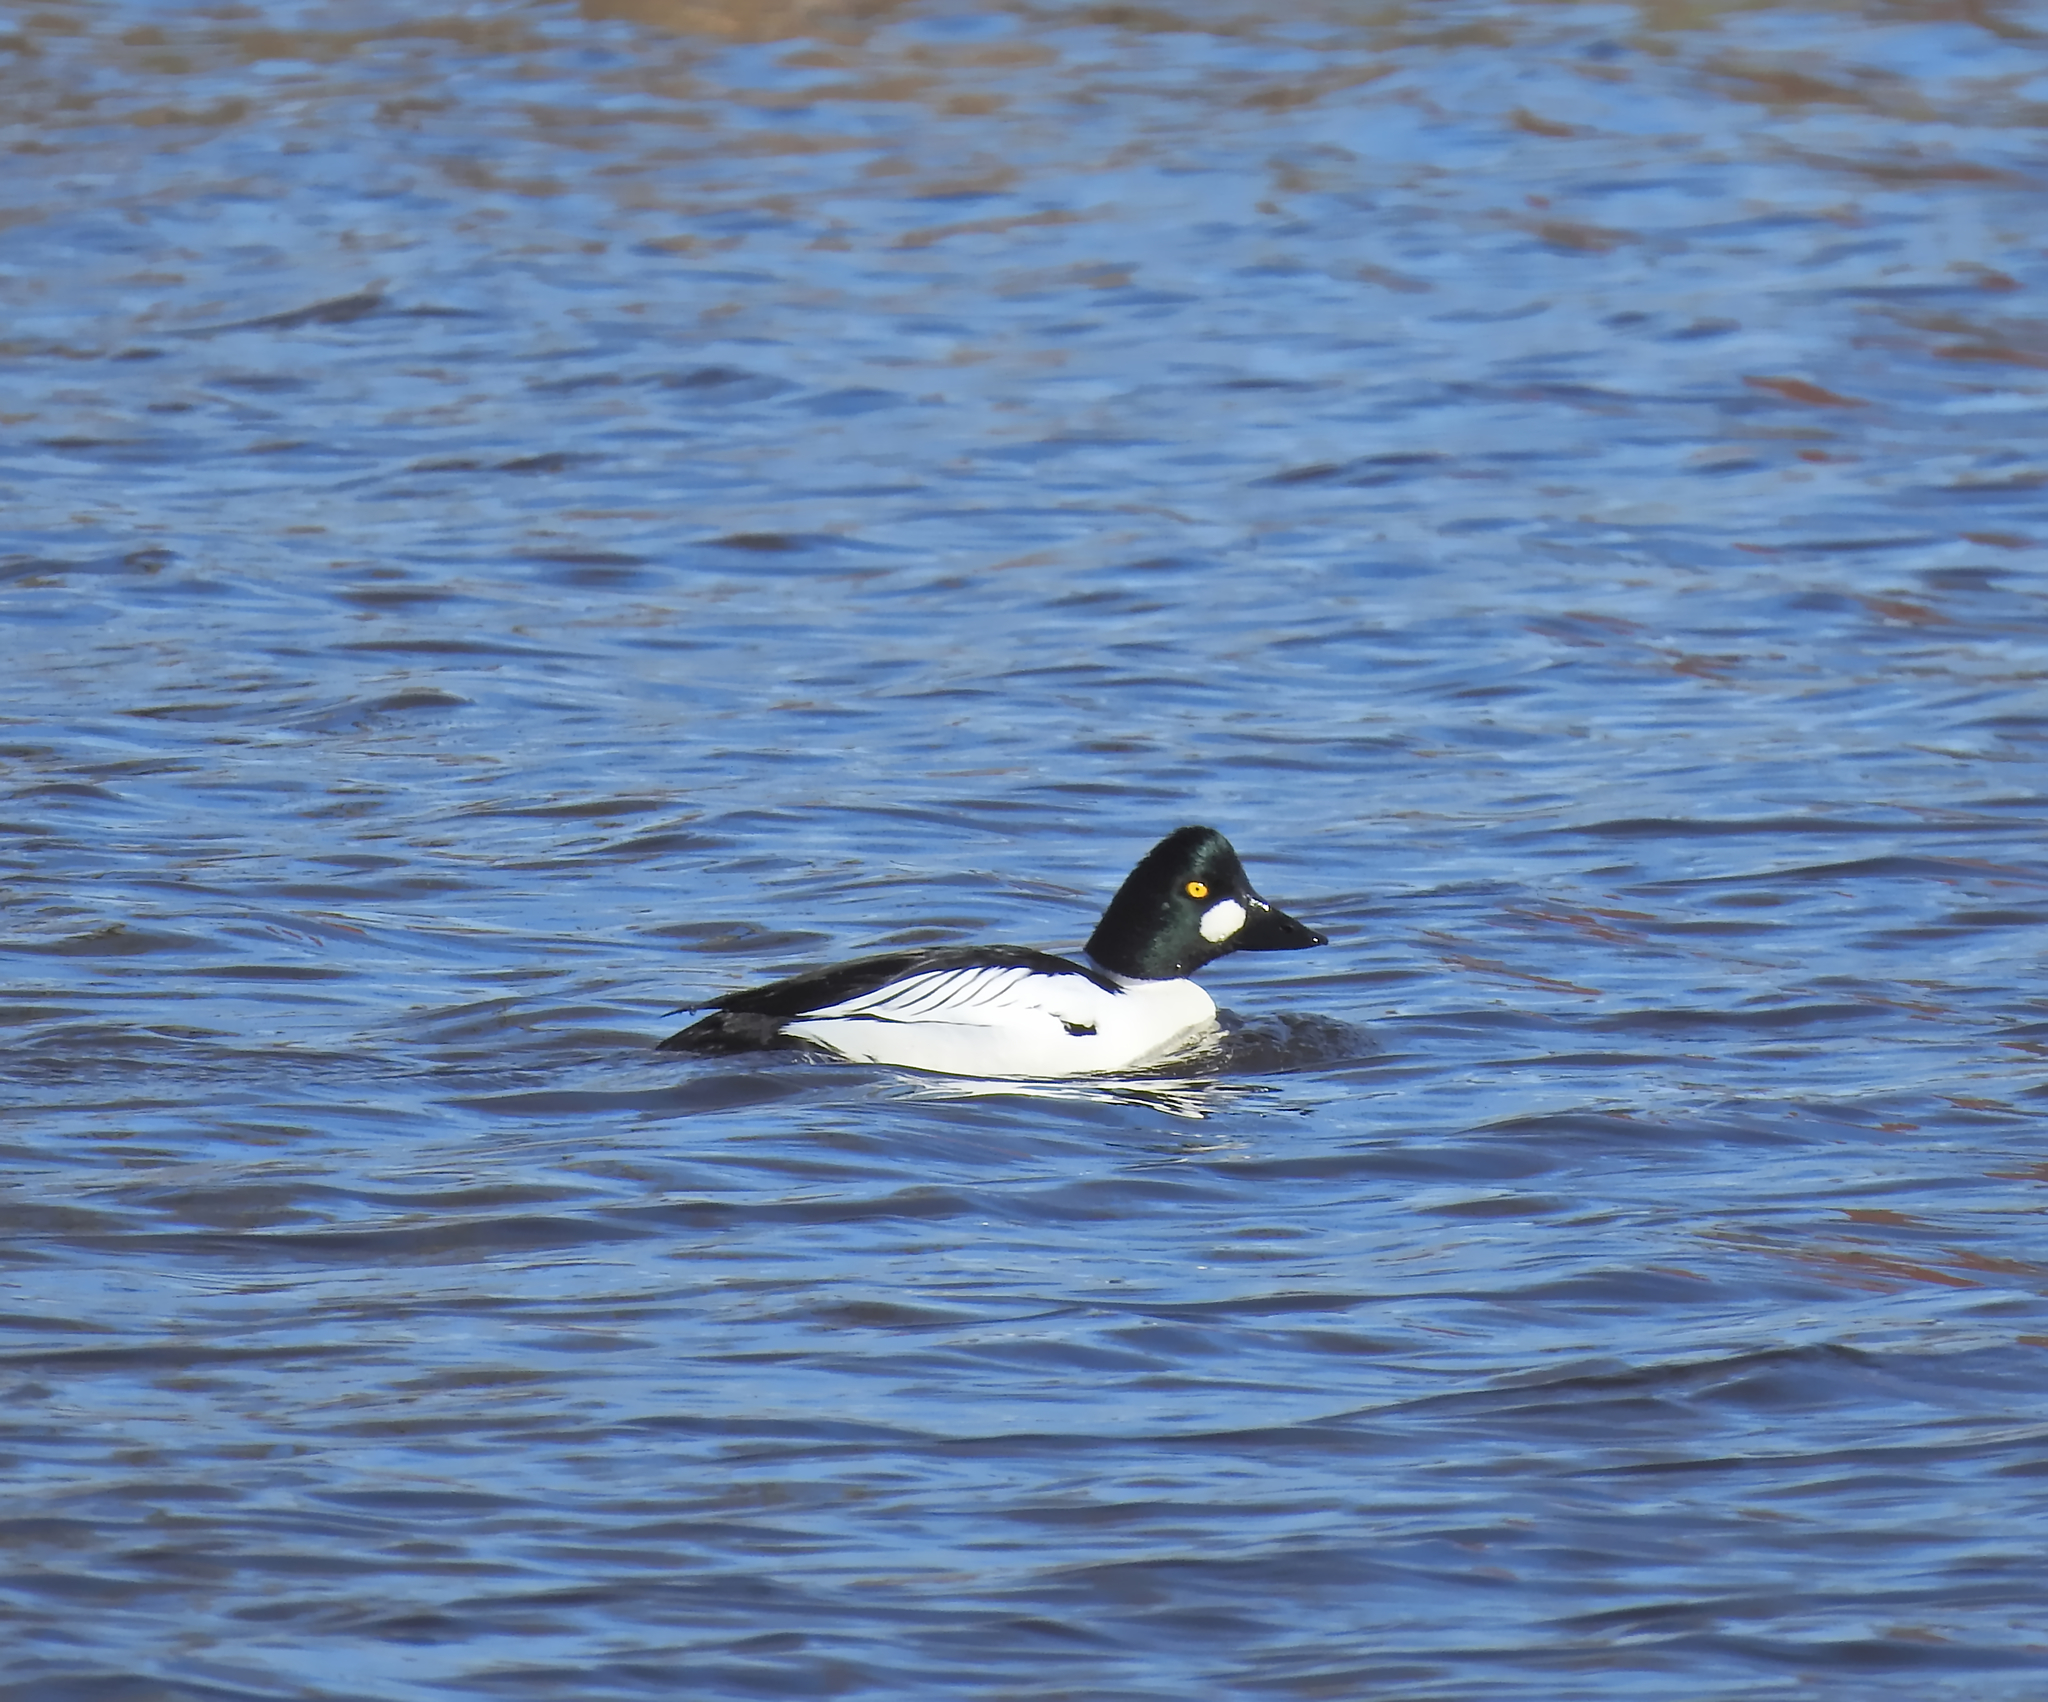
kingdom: Animalia
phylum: Chordata
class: Aves
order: Anseriformes
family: Anatidae
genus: Bucephala
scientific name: Bucephala clangula
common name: Common goldeneye
